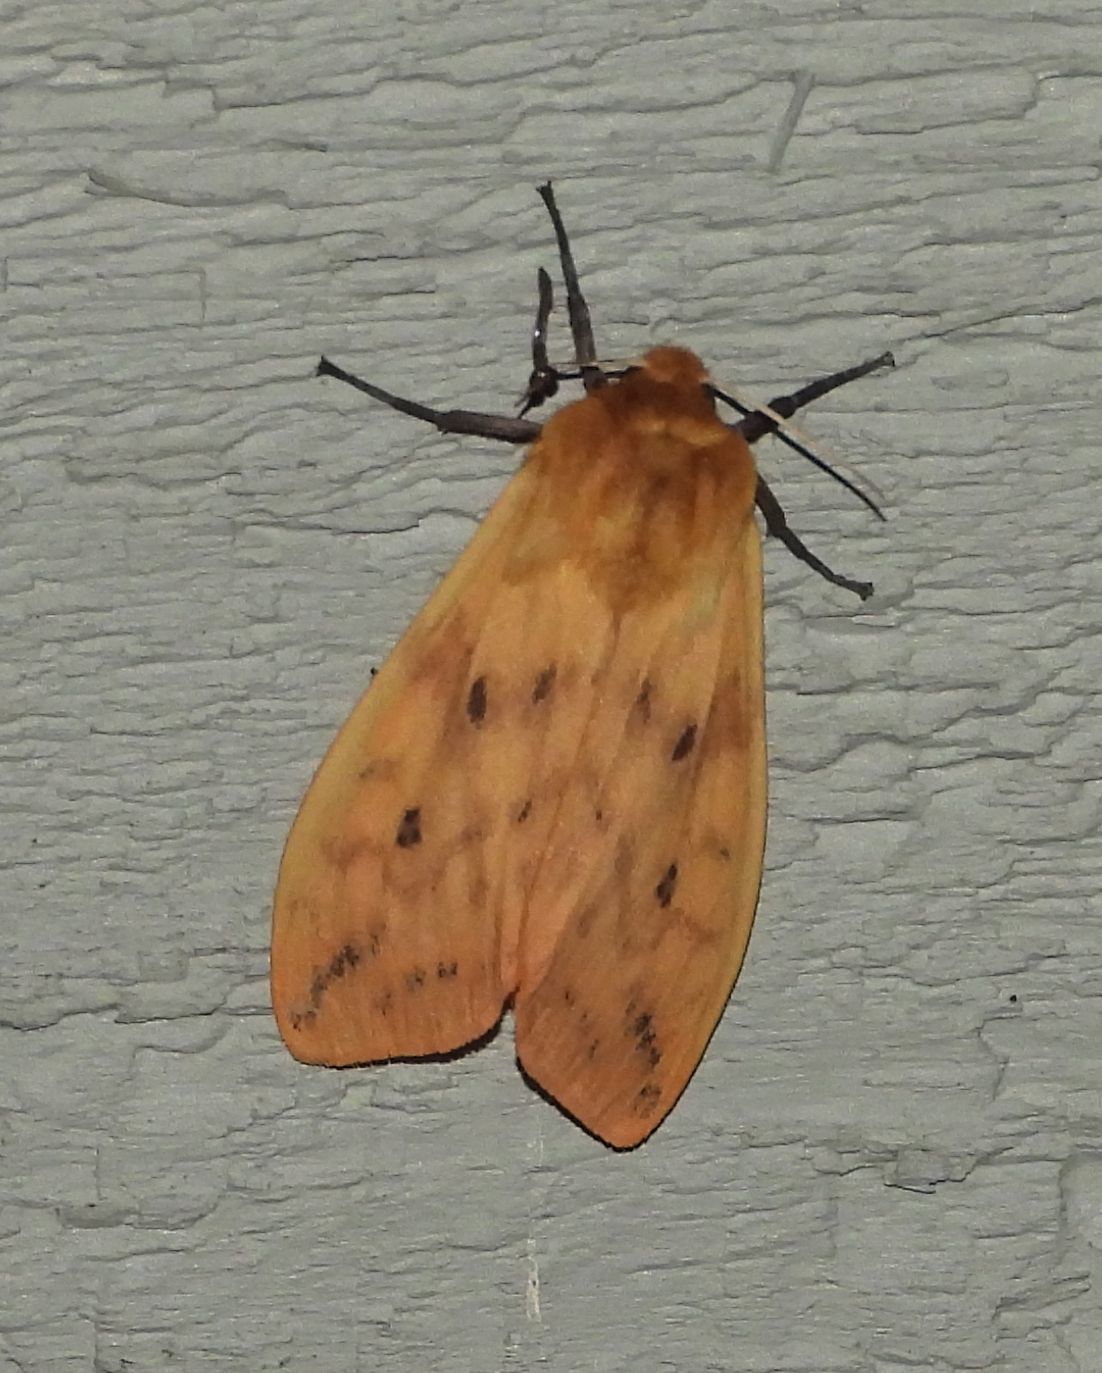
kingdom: Animalia
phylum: Arthropoda
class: Insecta
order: Lepidoptera
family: Erebidae
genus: Pyrrharctia
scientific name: Pyrrharctia isabella
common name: Isabella tiger moth
